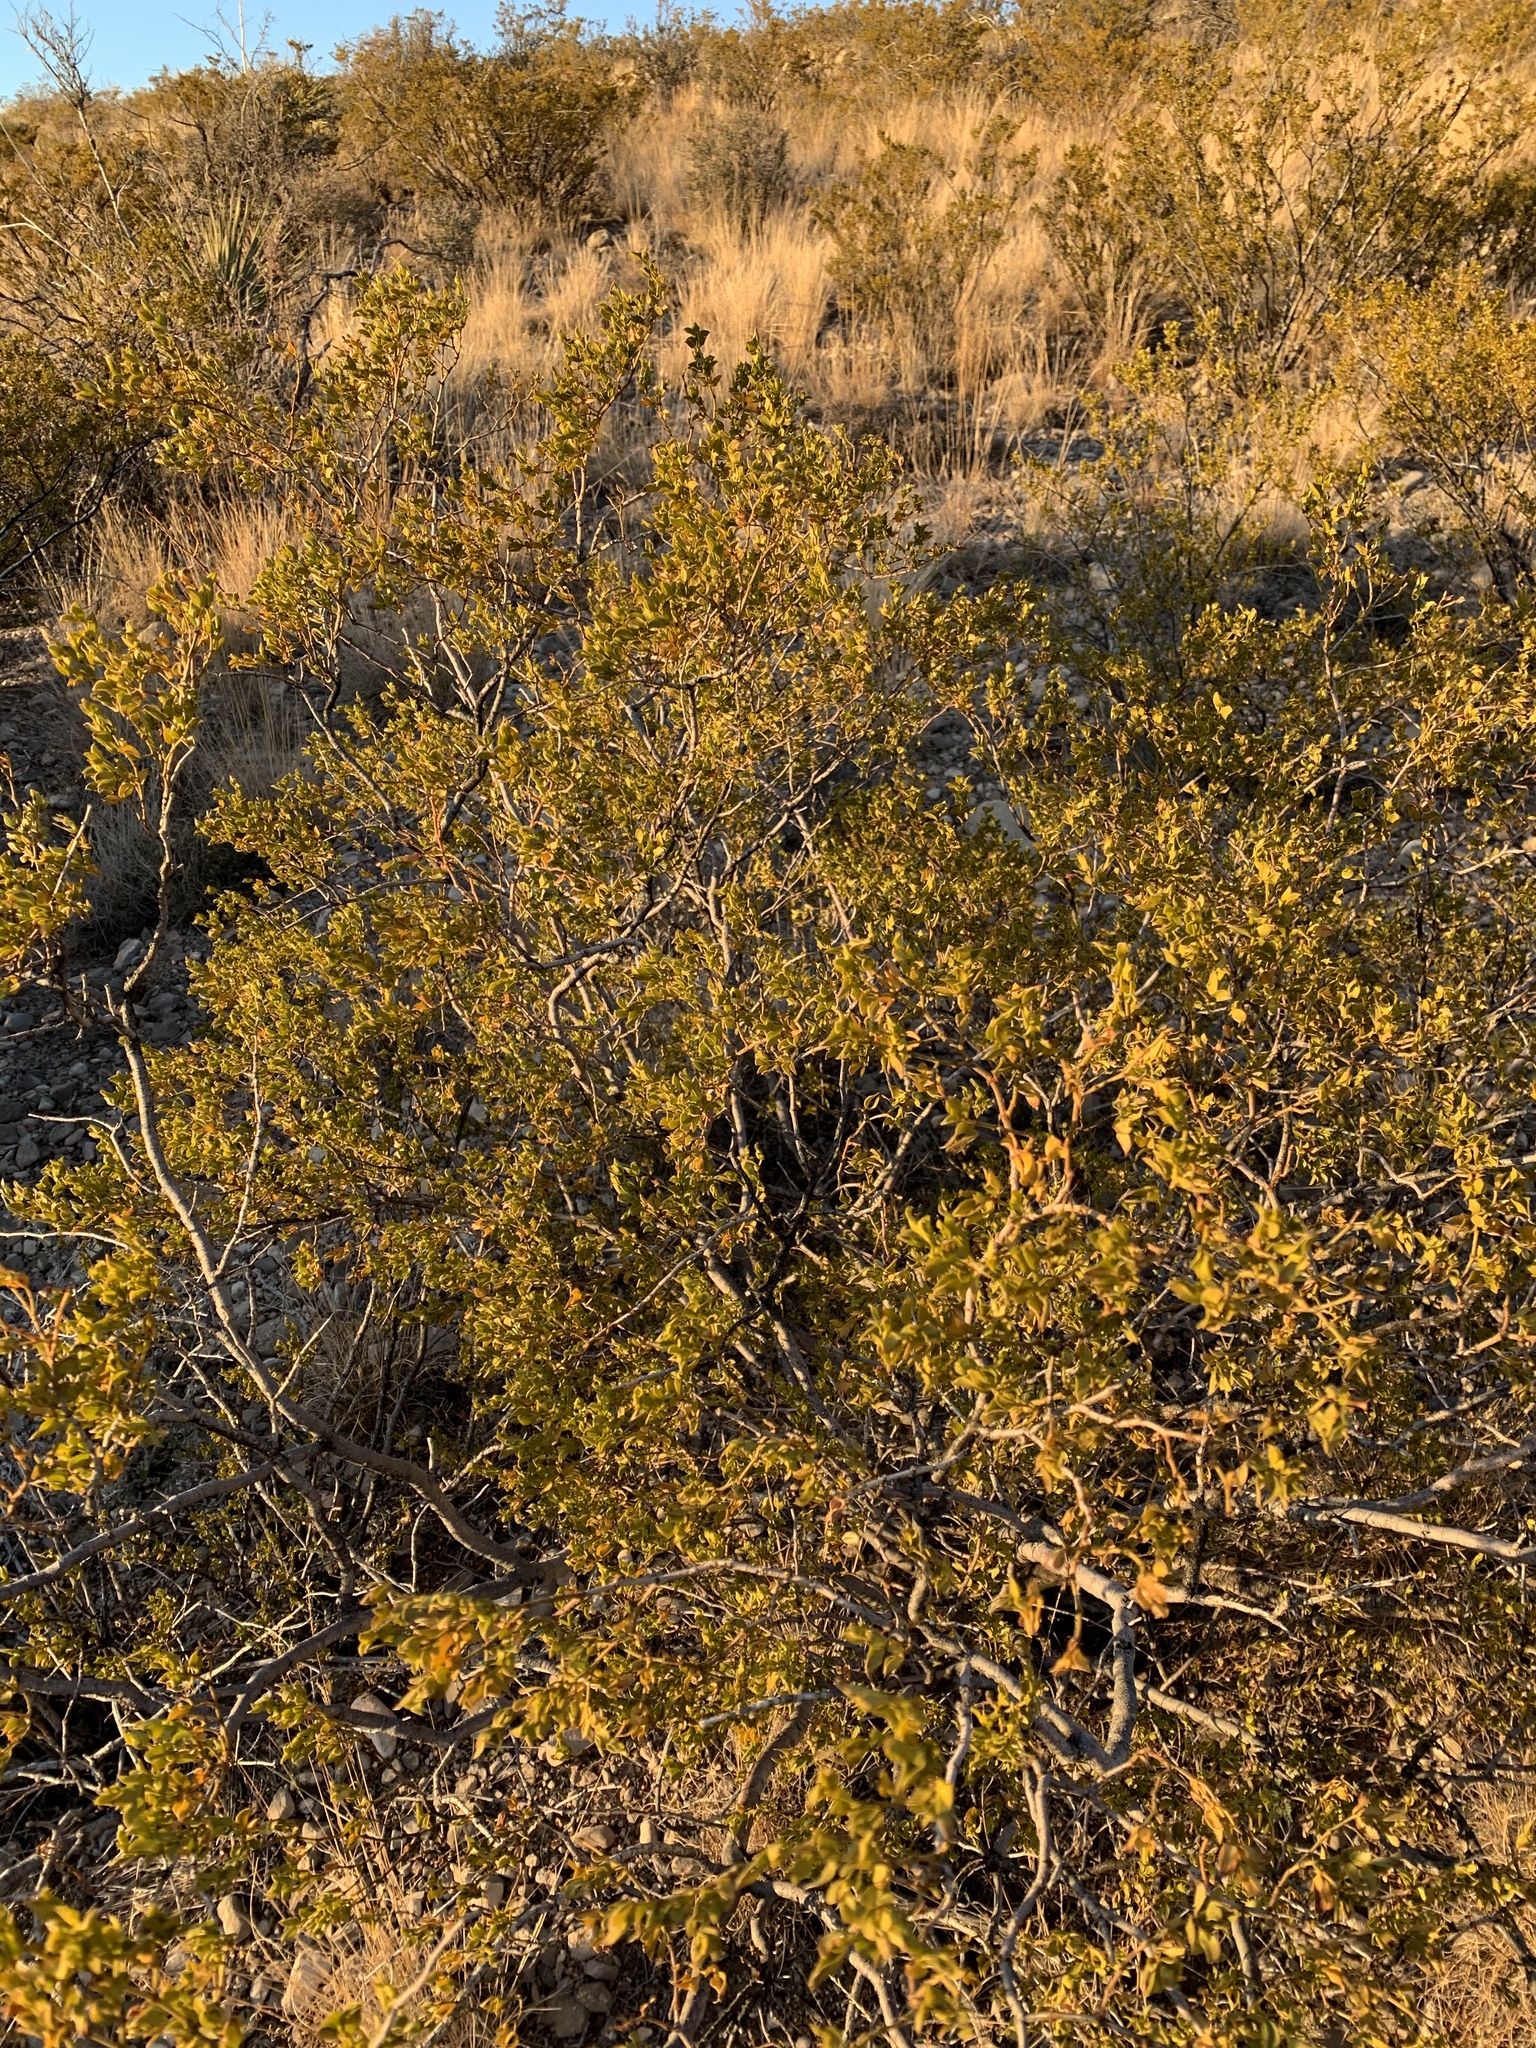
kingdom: Plantae
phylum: Tracheophyta
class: Magnoliopsida
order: Zygophyllales
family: Zygophyllaceae
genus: Larrea
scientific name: Larrea tridentata
